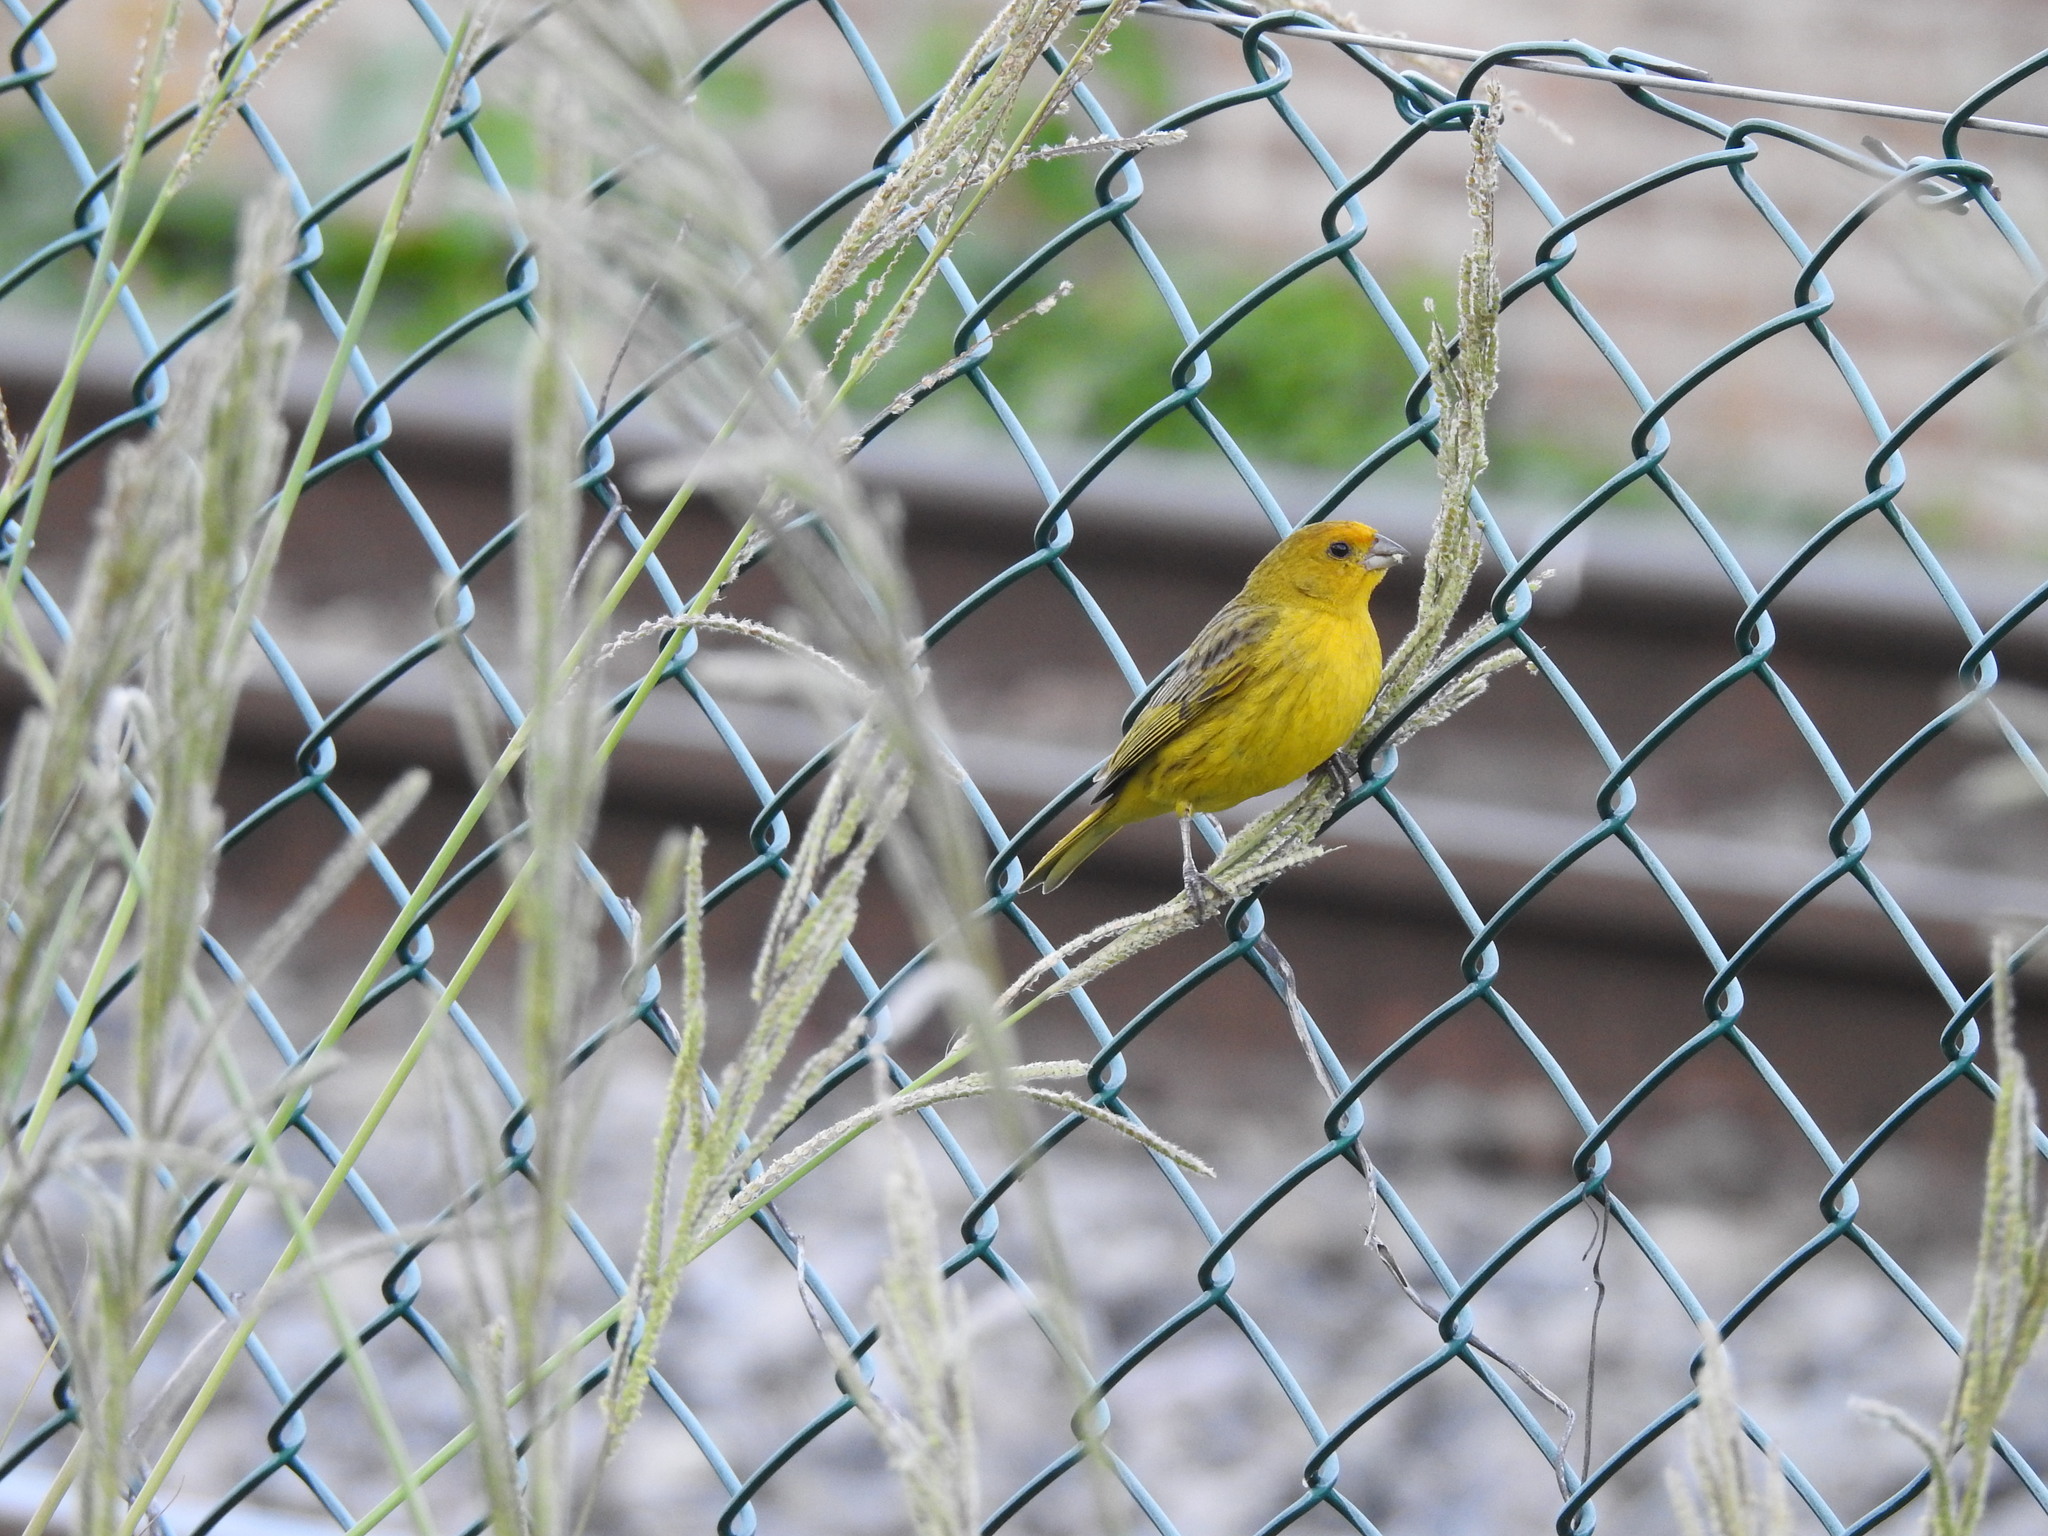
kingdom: Animalia
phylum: Chordata
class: Aves
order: Passeriformes
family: Thraupidae
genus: Sicalis
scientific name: Sicalis flaveola
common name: Saffron finch
